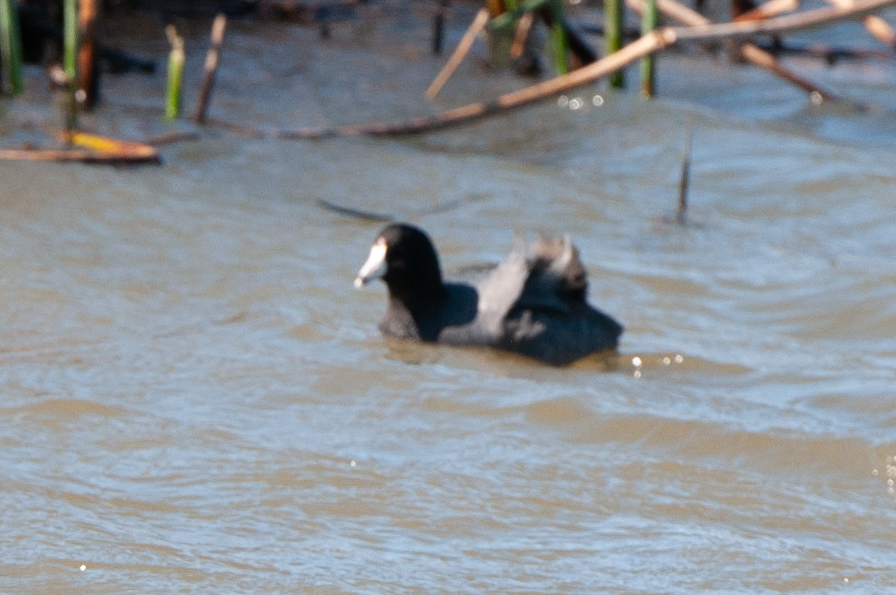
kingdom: Animalia
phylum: Chordata
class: Aves
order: Gruiformes
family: Rallidae
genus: Fulica
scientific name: Fulica americana
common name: American coot
